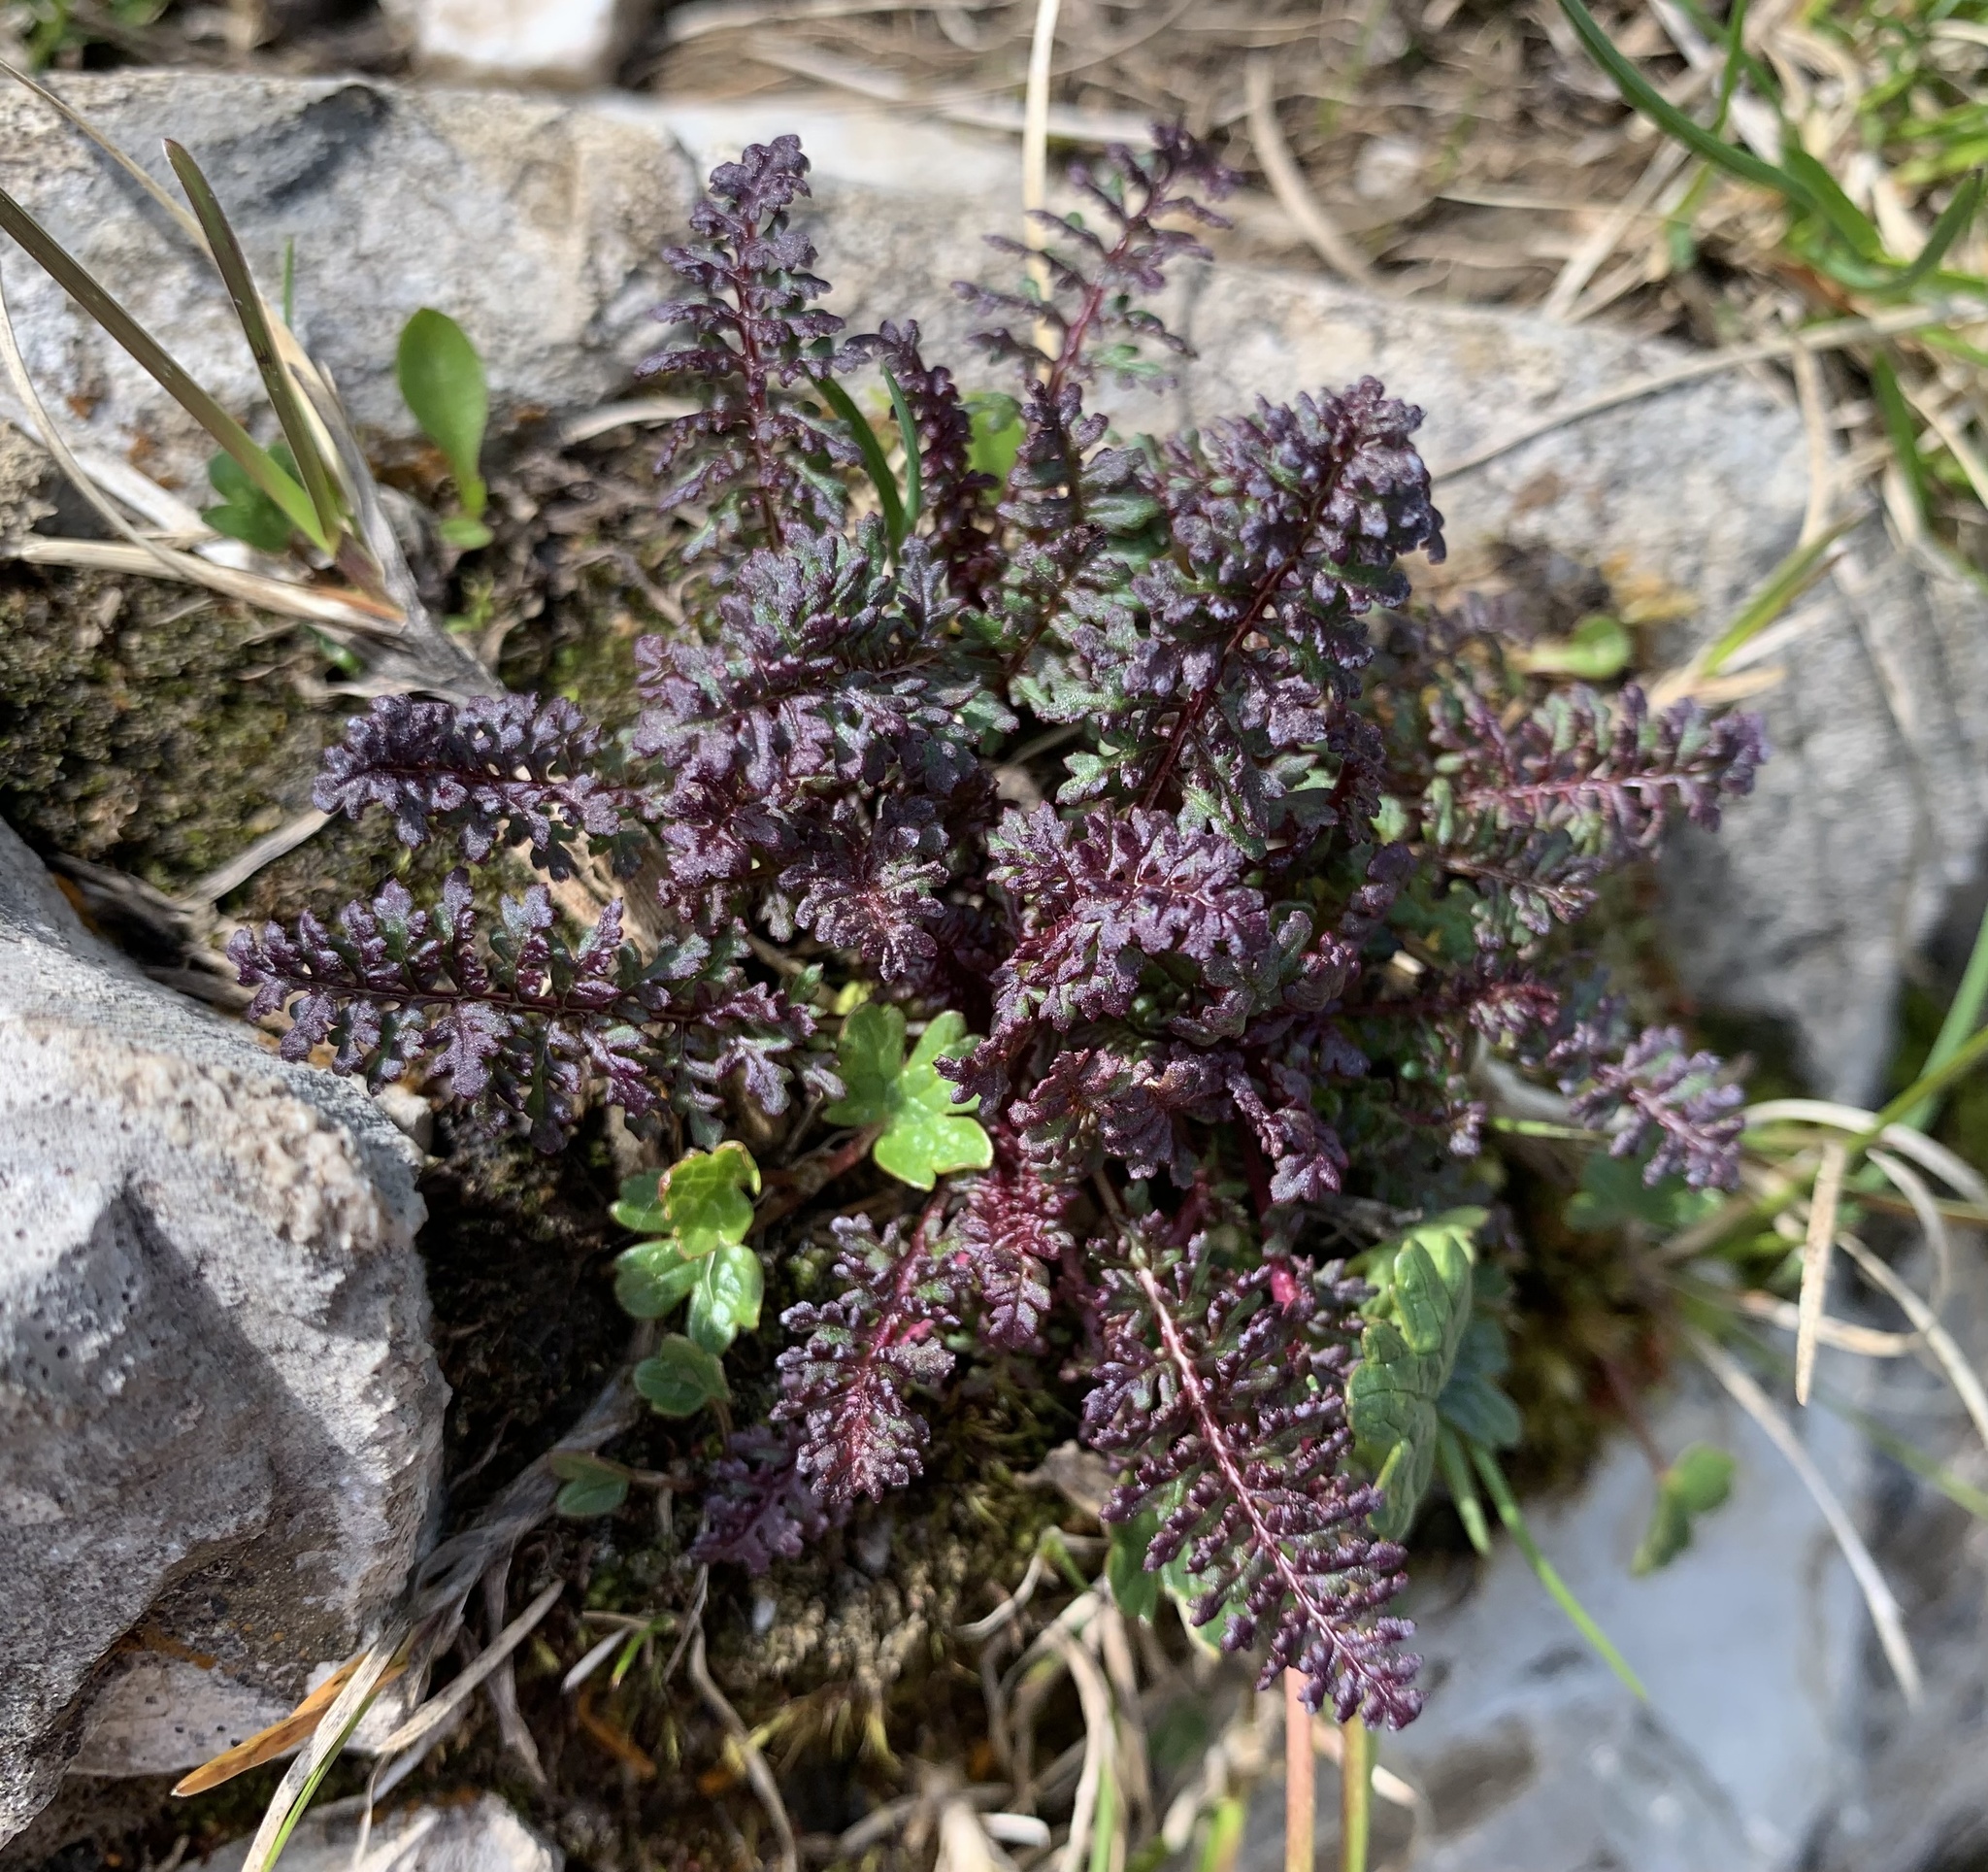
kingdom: Plantae
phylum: Tracheophyta
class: Magnoliopsida
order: Lamiales
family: Orobanchaceae
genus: Pedicularis
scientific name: Pedicularis rostratocapitata
